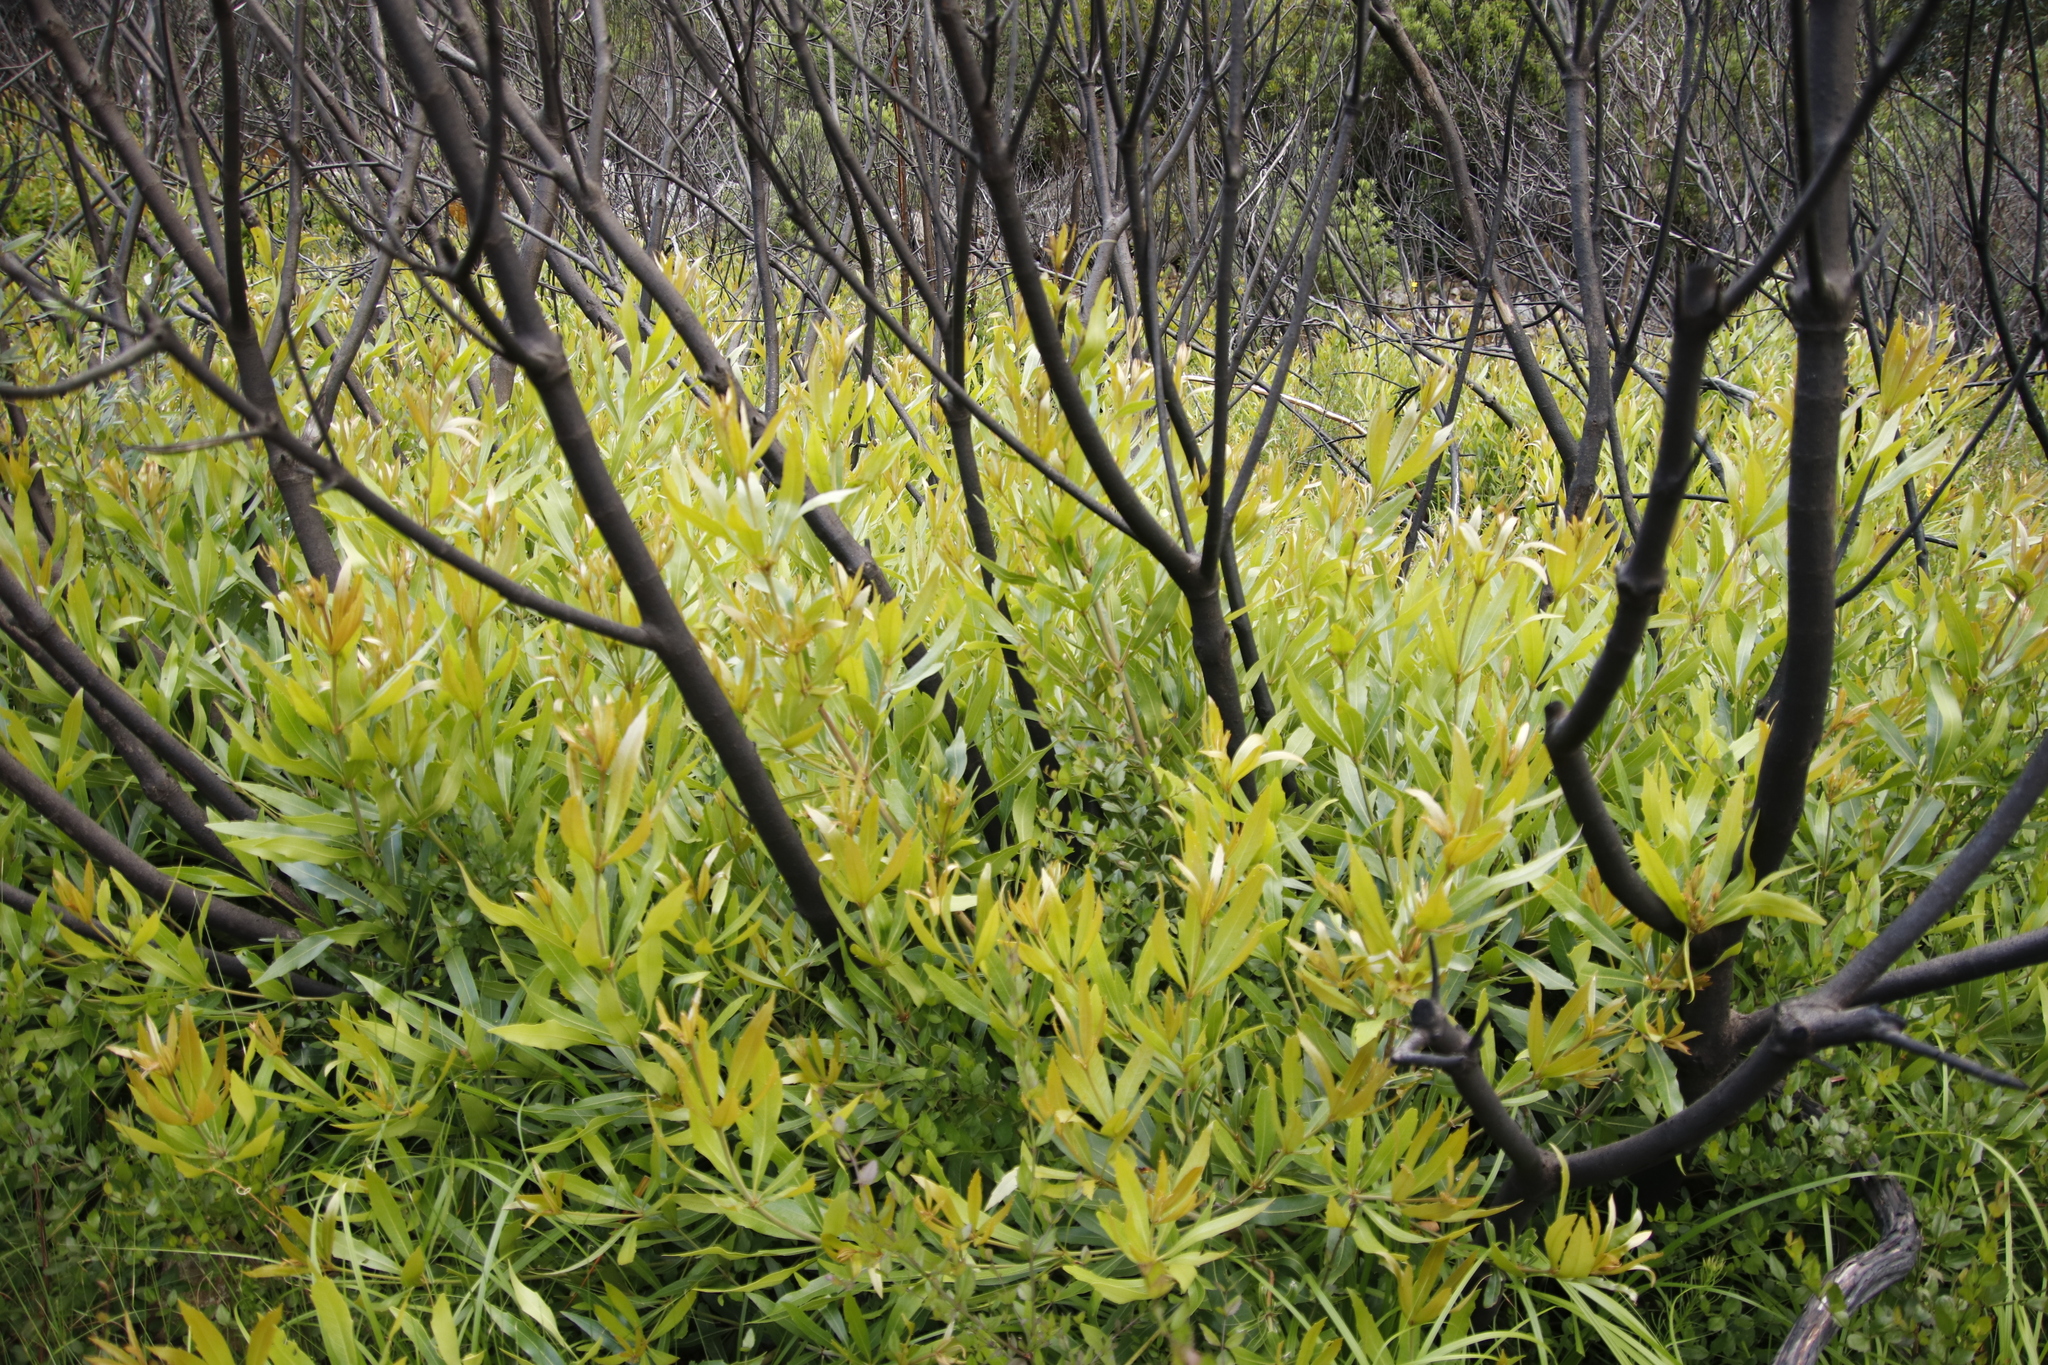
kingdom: Plantae
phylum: Tracheophyta
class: Magnoliopsida
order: Proteales
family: Proteaceae
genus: Brabejum
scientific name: Brabejum stellatifolium
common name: Wild almond
